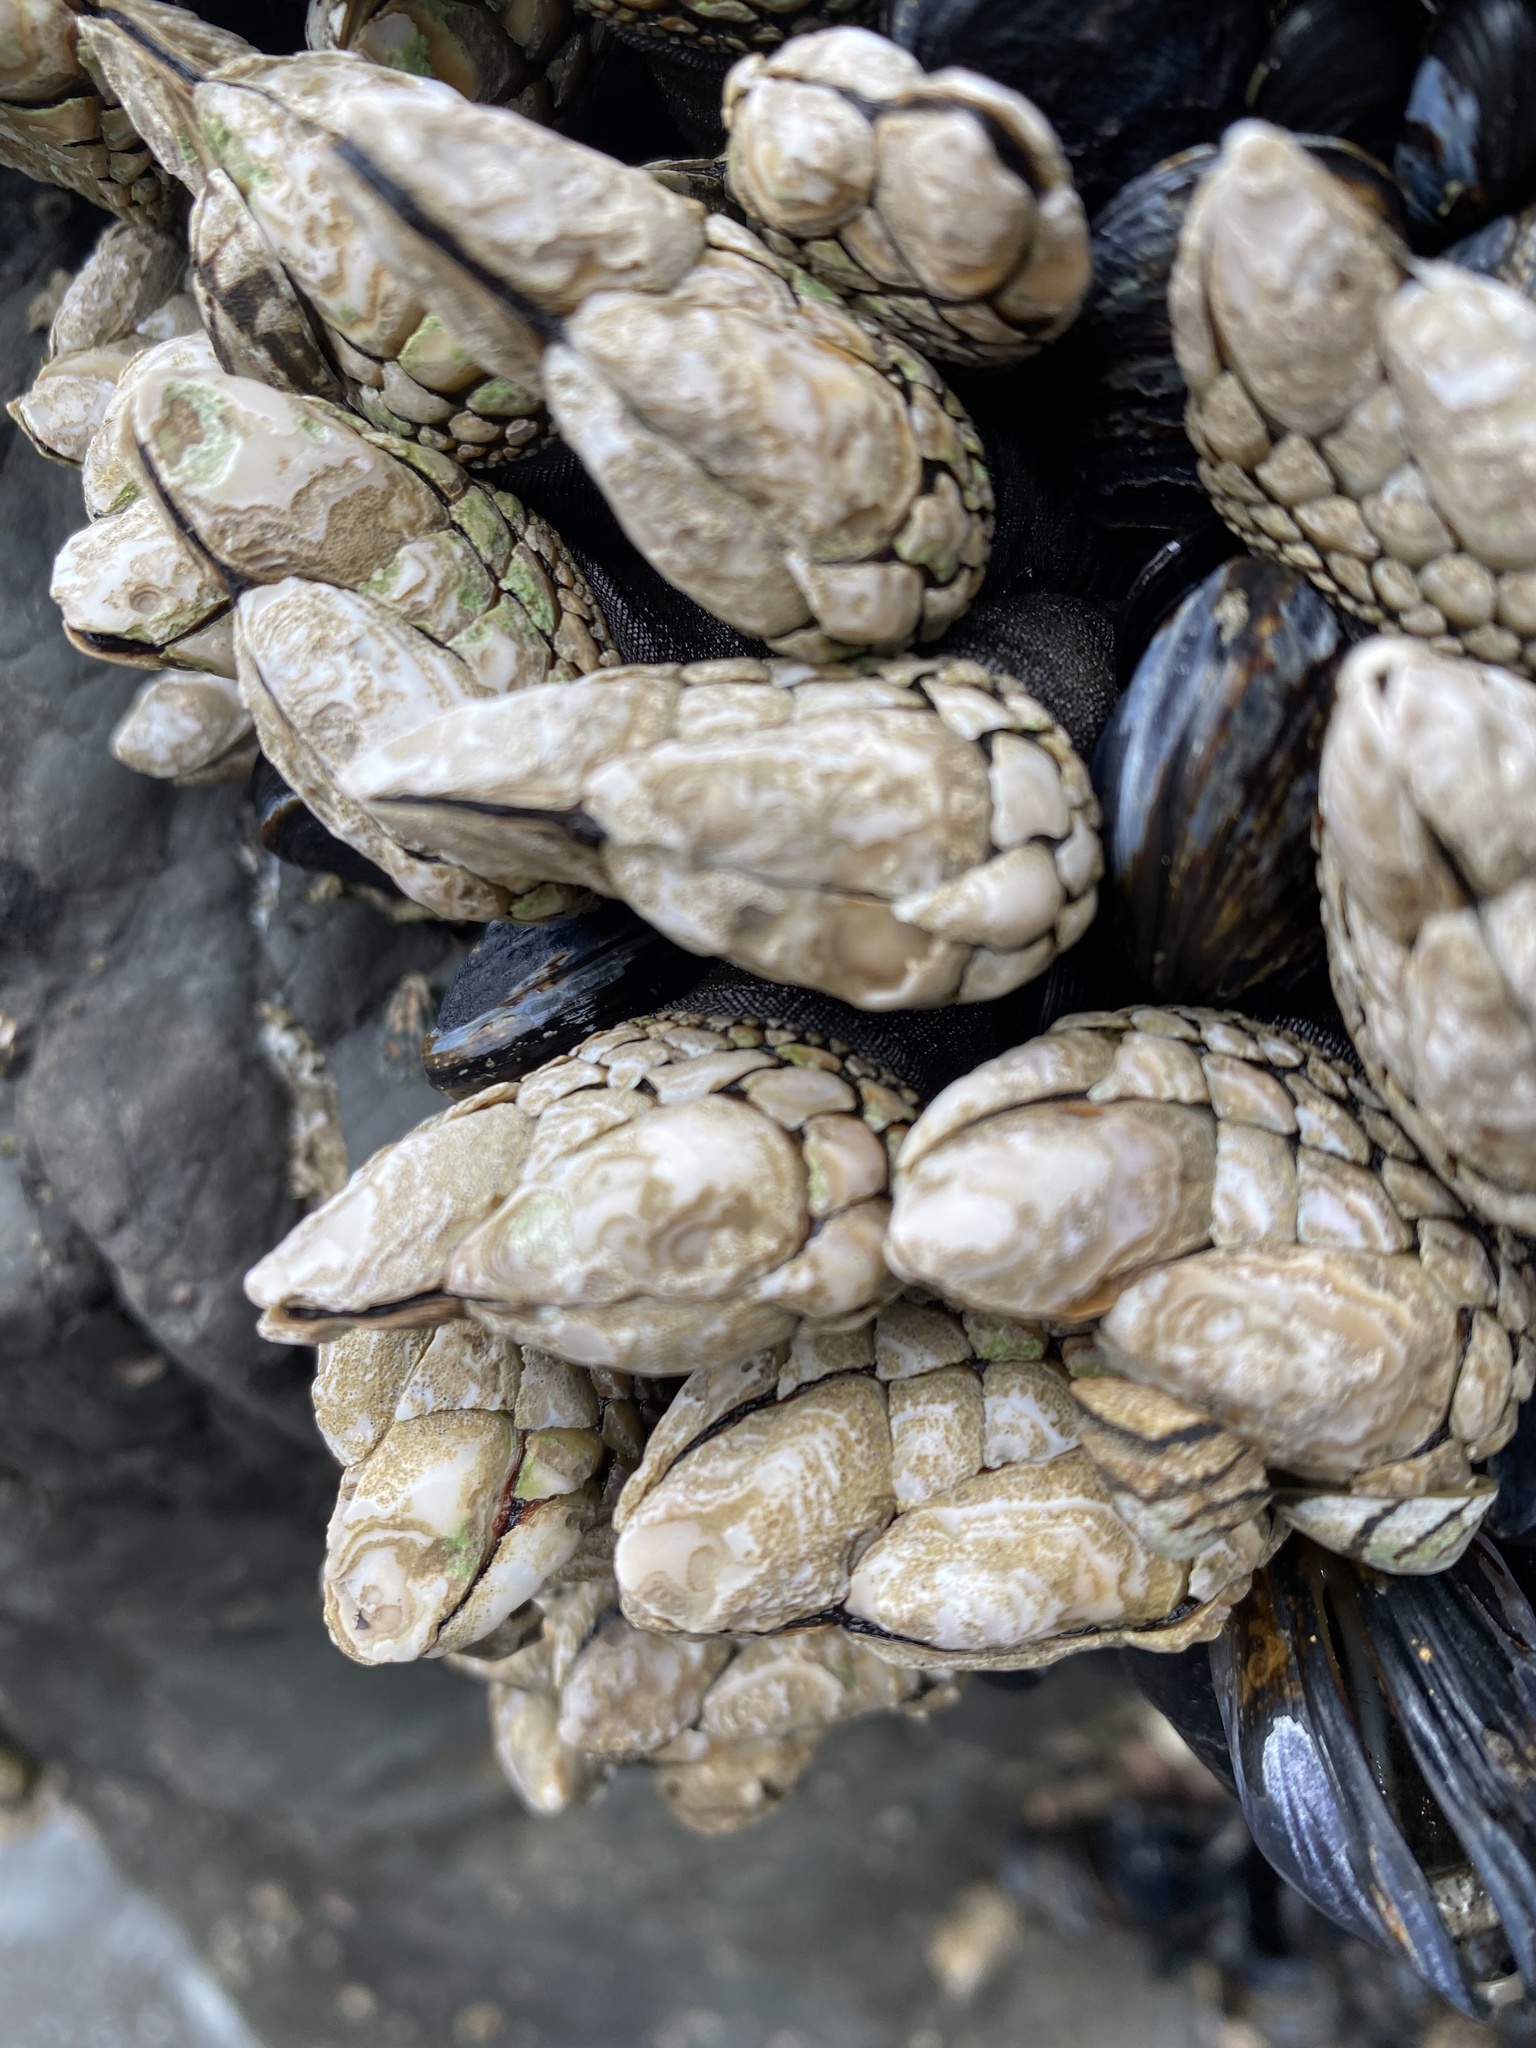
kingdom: Animalia
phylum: Arthropoda
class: Maxillopoda
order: Pedunculata
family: Pollicipedidae
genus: Pollicipes
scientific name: Pollicipes polymerus
